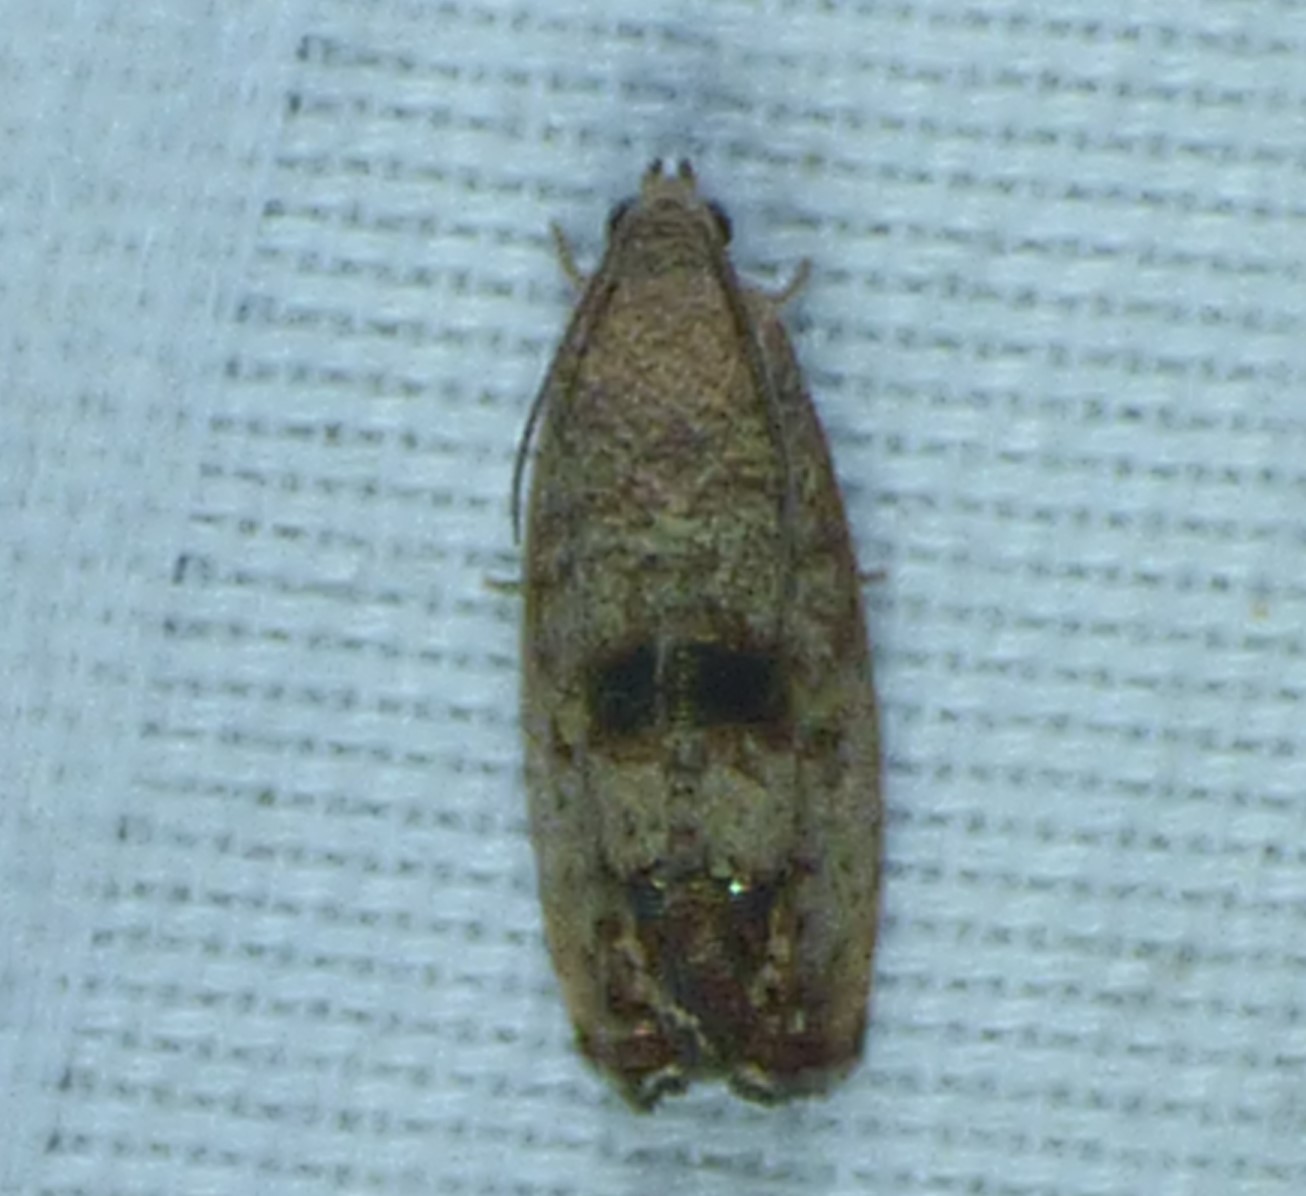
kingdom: Animalia
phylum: Arthropoda
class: Insecta
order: Lepidoptera
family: Tortricidae
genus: Cydia
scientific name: Cydia latiferreana
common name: Filbertworm moth
